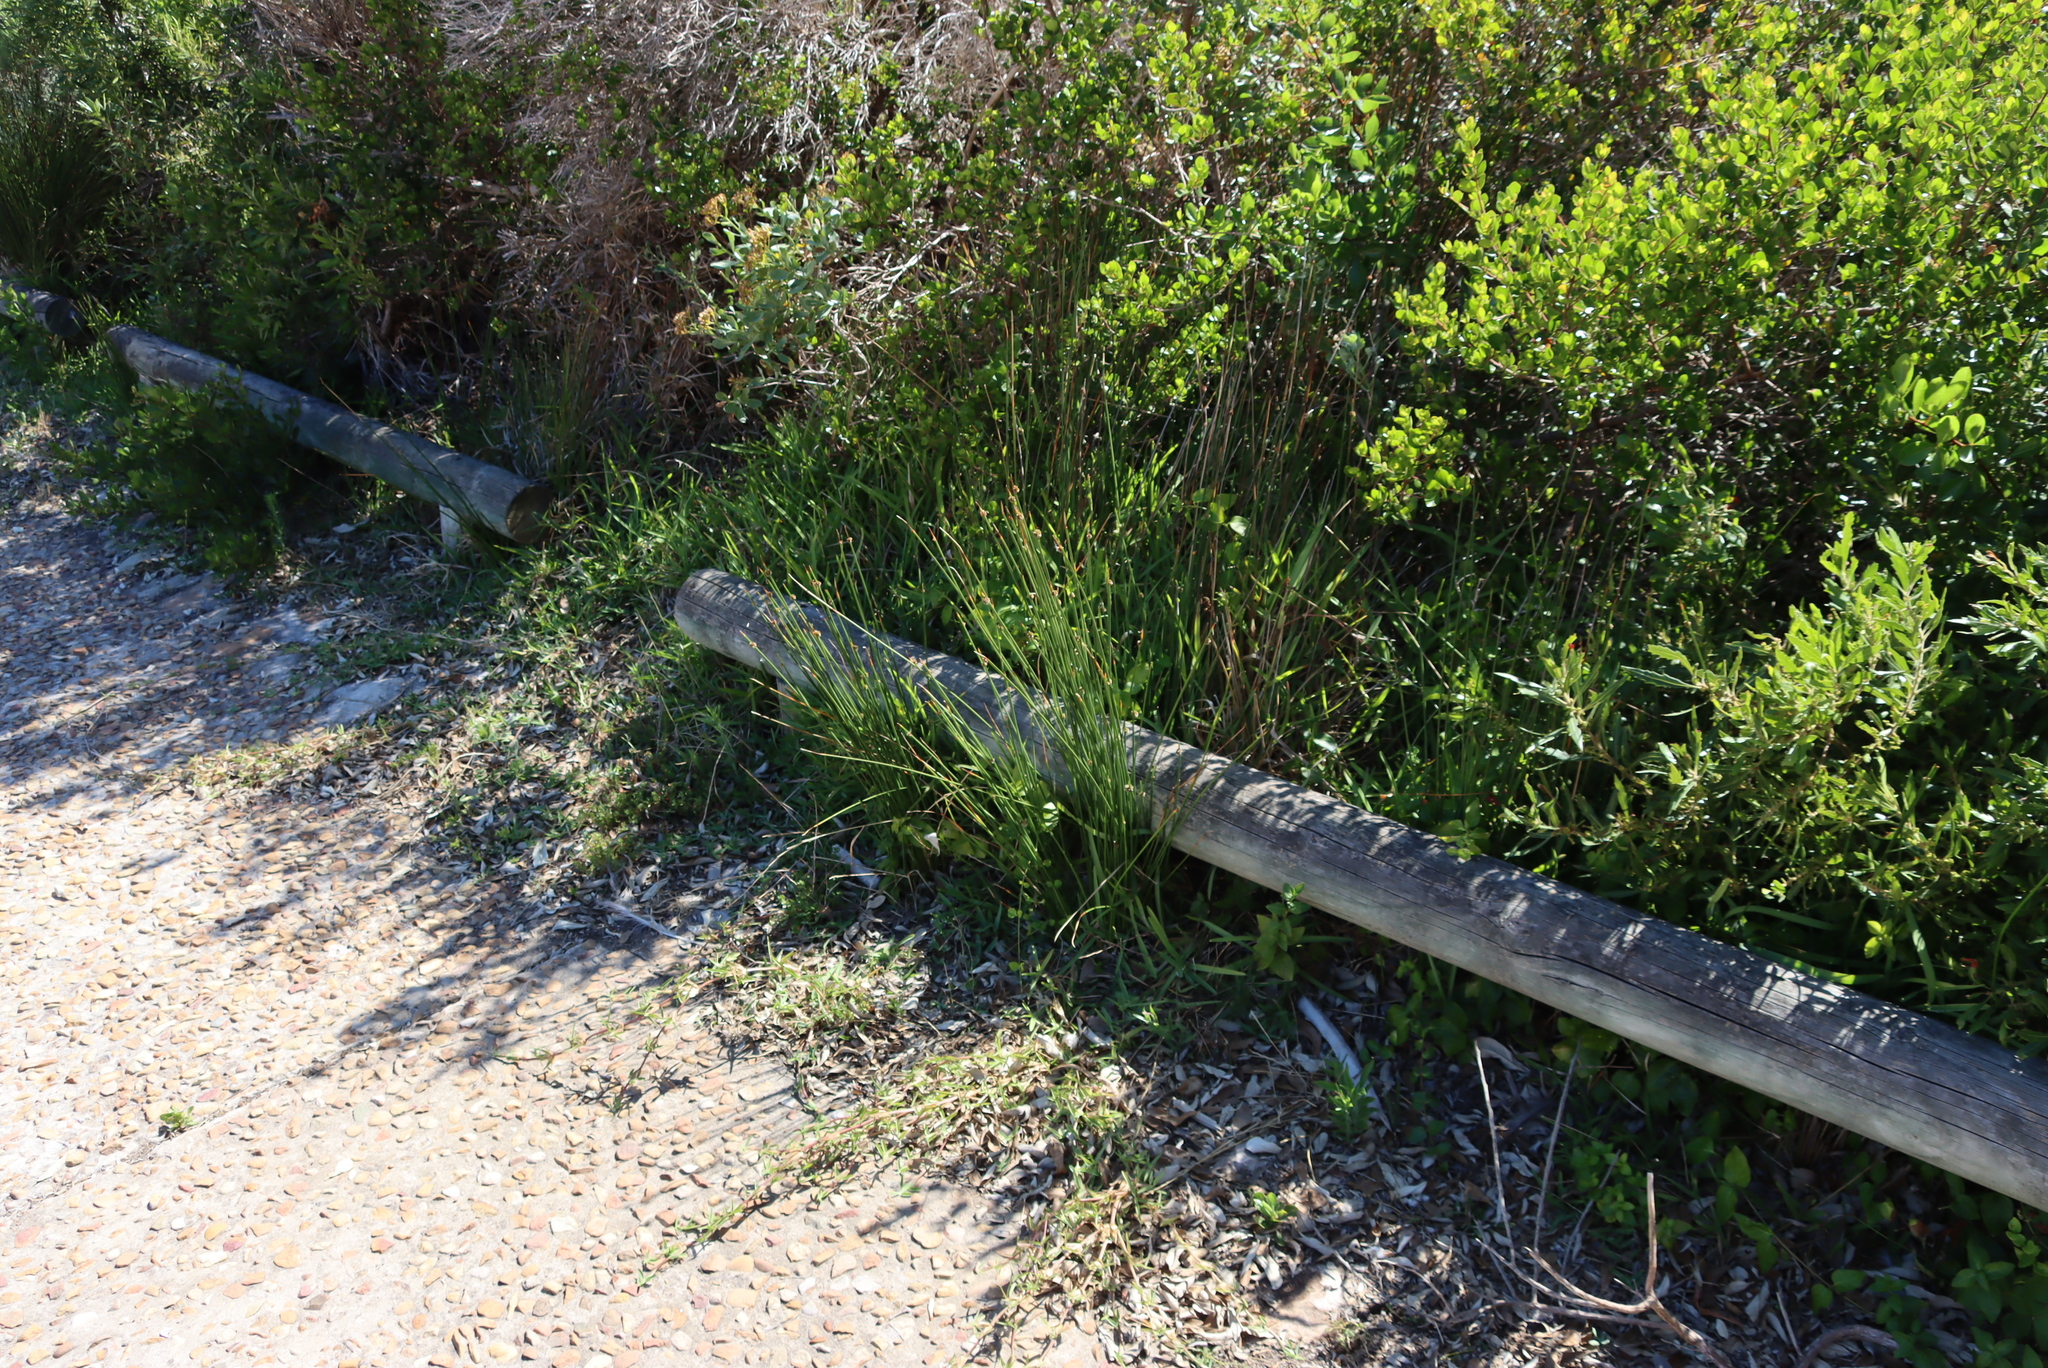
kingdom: Plantae
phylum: Tracheophyta
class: Liliopsida
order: Poales
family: Cyperaceae
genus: Ficinia
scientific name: Ficinia nodosa
